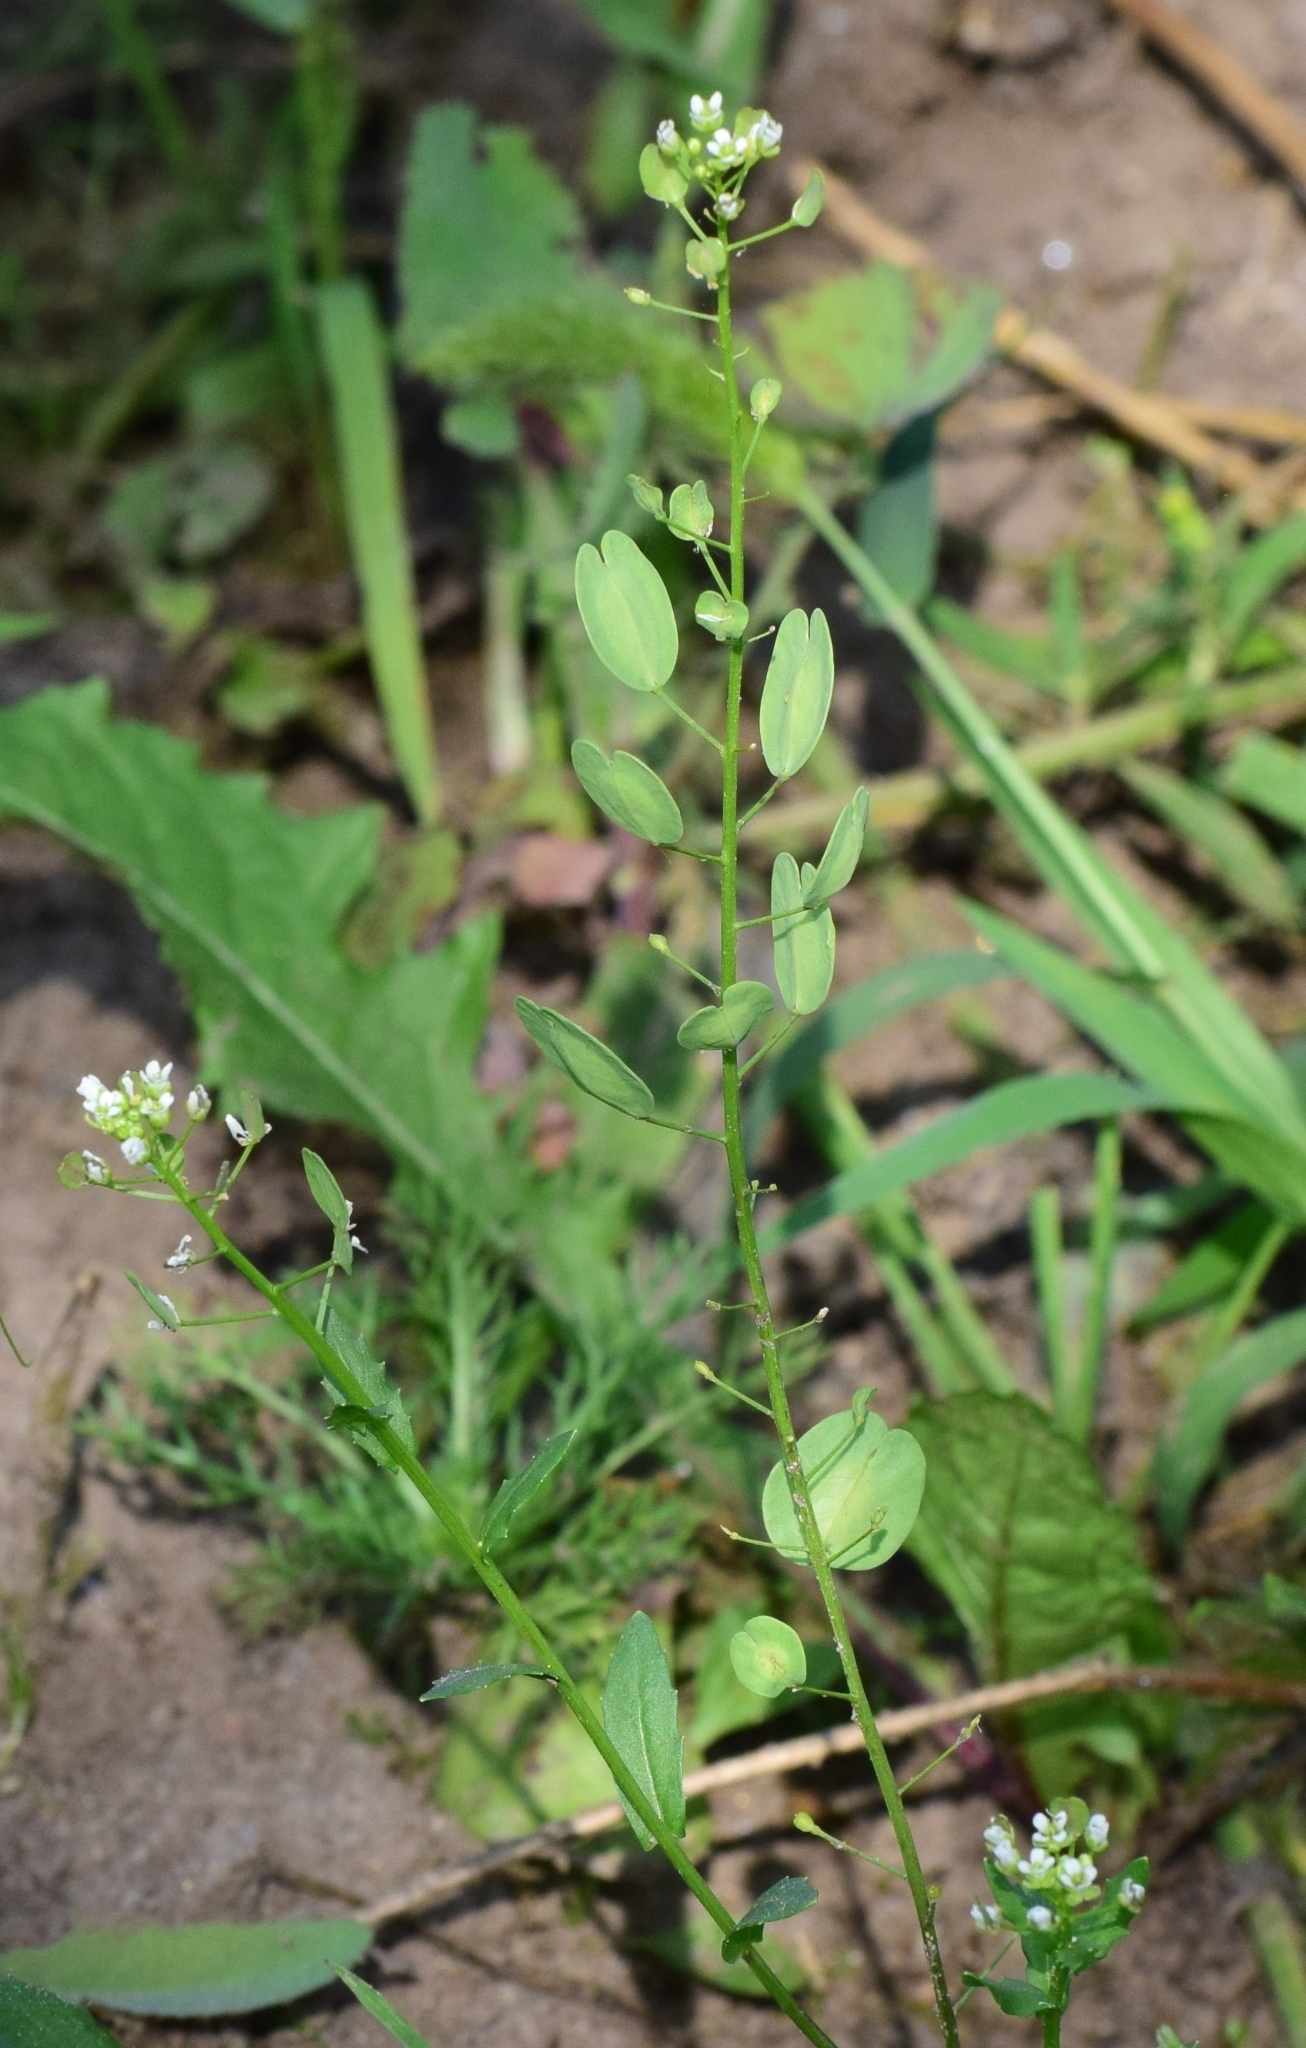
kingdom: Plantae
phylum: Tracheophyta
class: Magnoliopsida
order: Brassicales
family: Brassicaceae
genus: Thlaspi
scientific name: Thlaspi arvense
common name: Field pennycress
